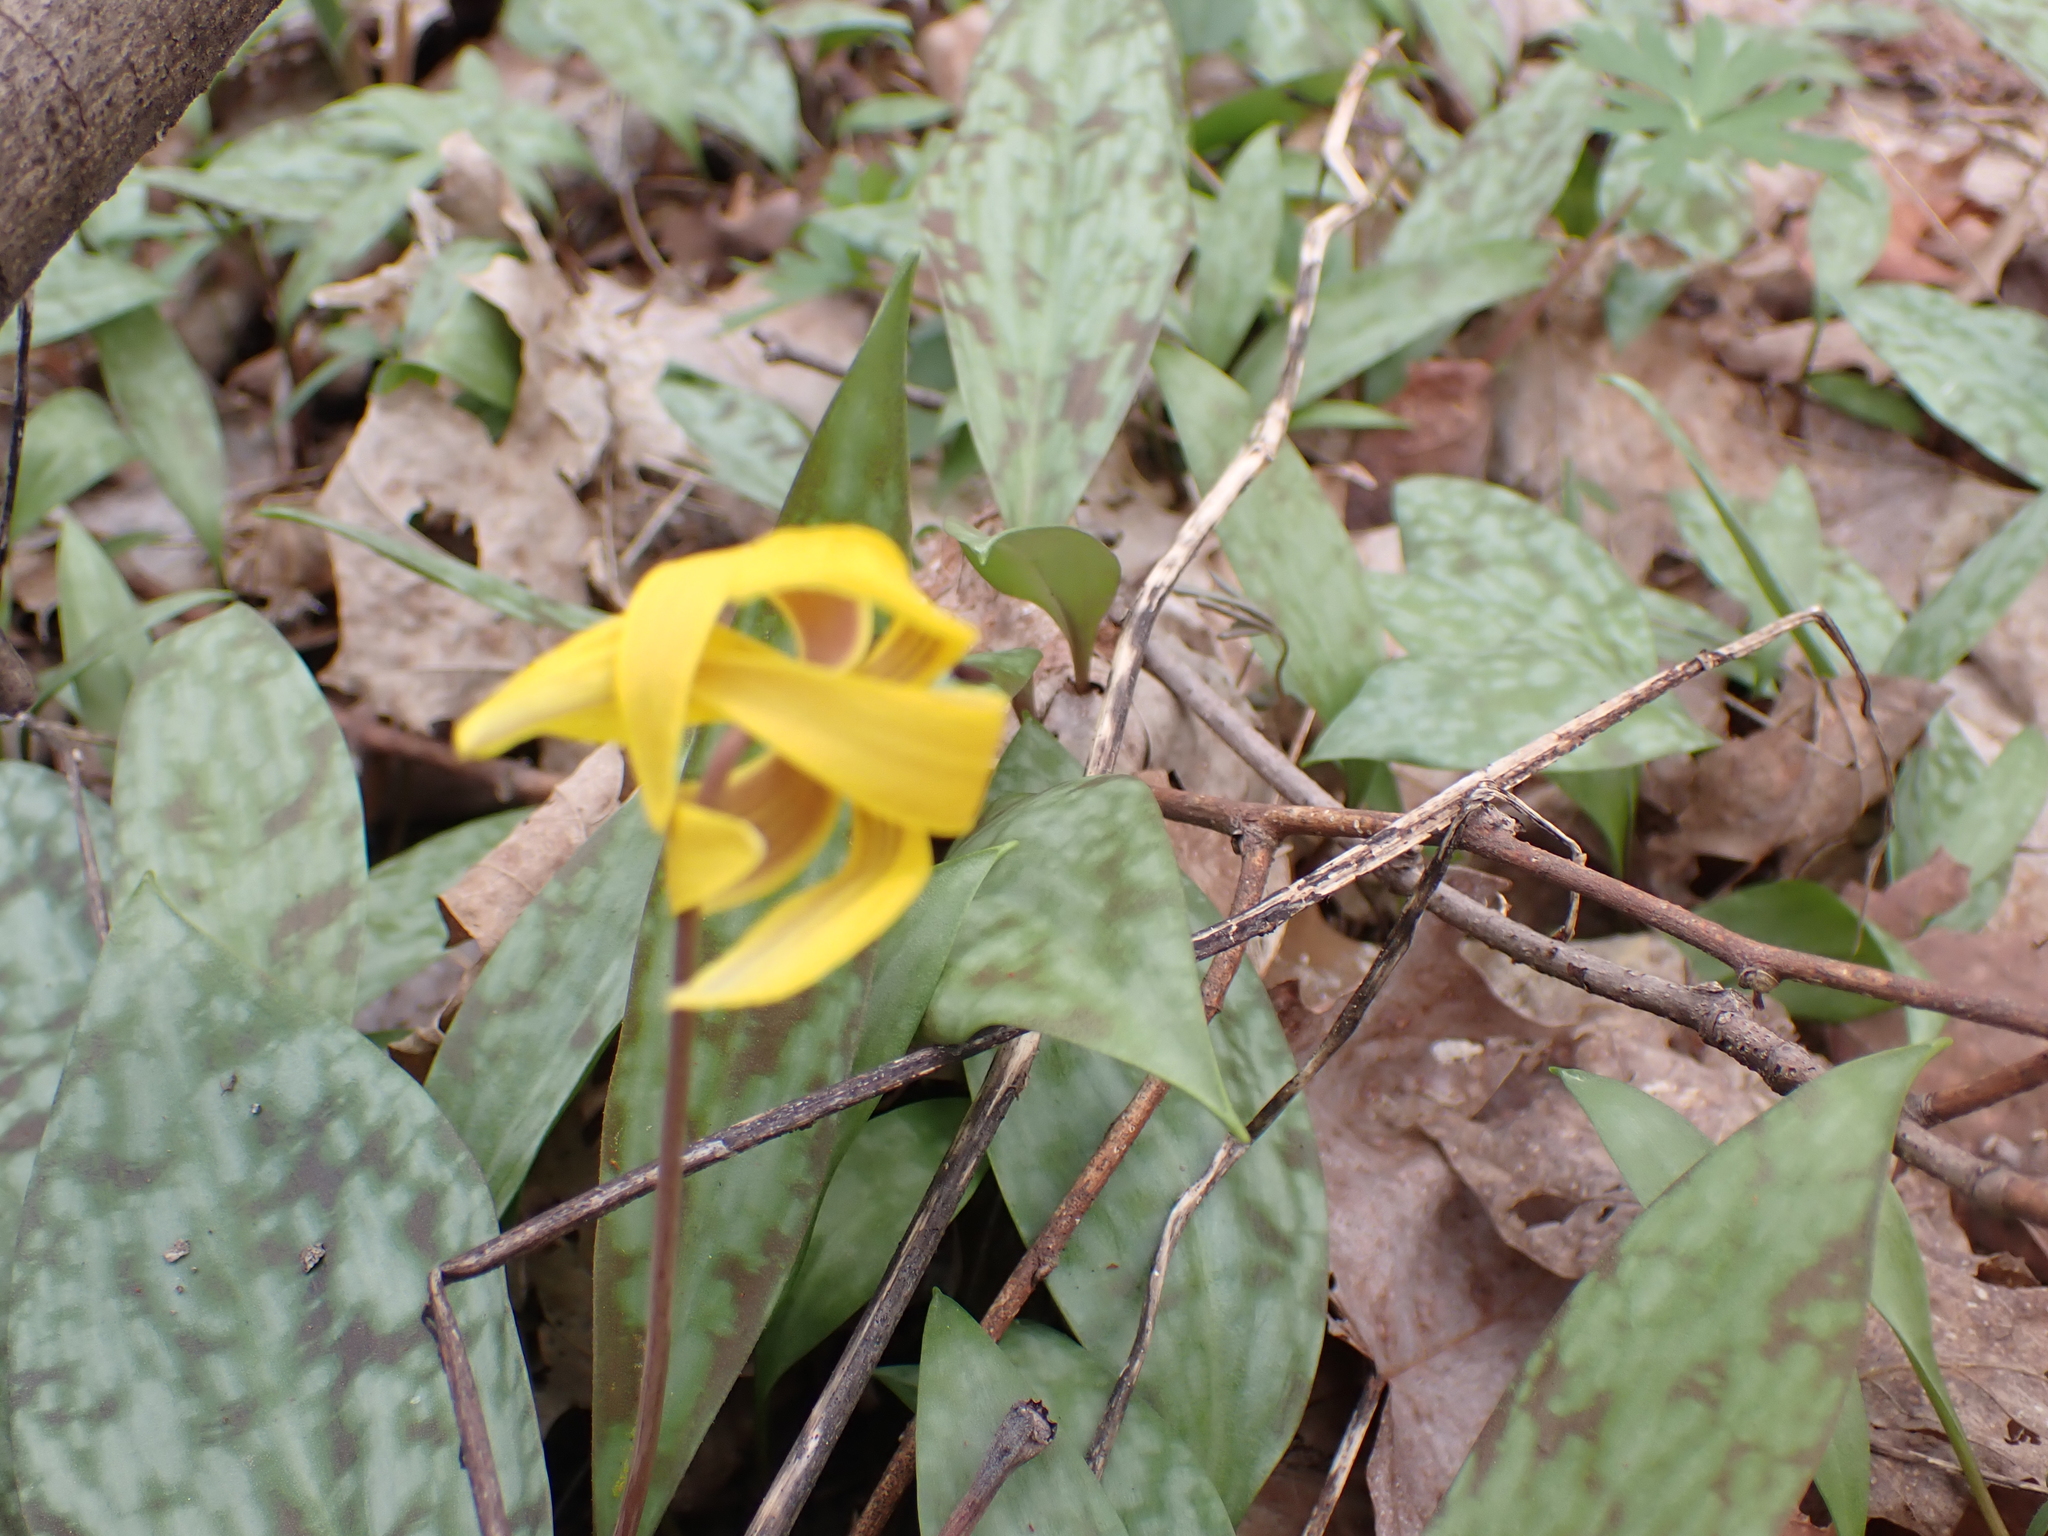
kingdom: Plantae
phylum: Tracheophyta
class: Liliopsida
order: Liliales
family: Liliaceae
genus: Erythronium
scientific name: Erythronium americanum
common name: Yellow adder's-tongue
